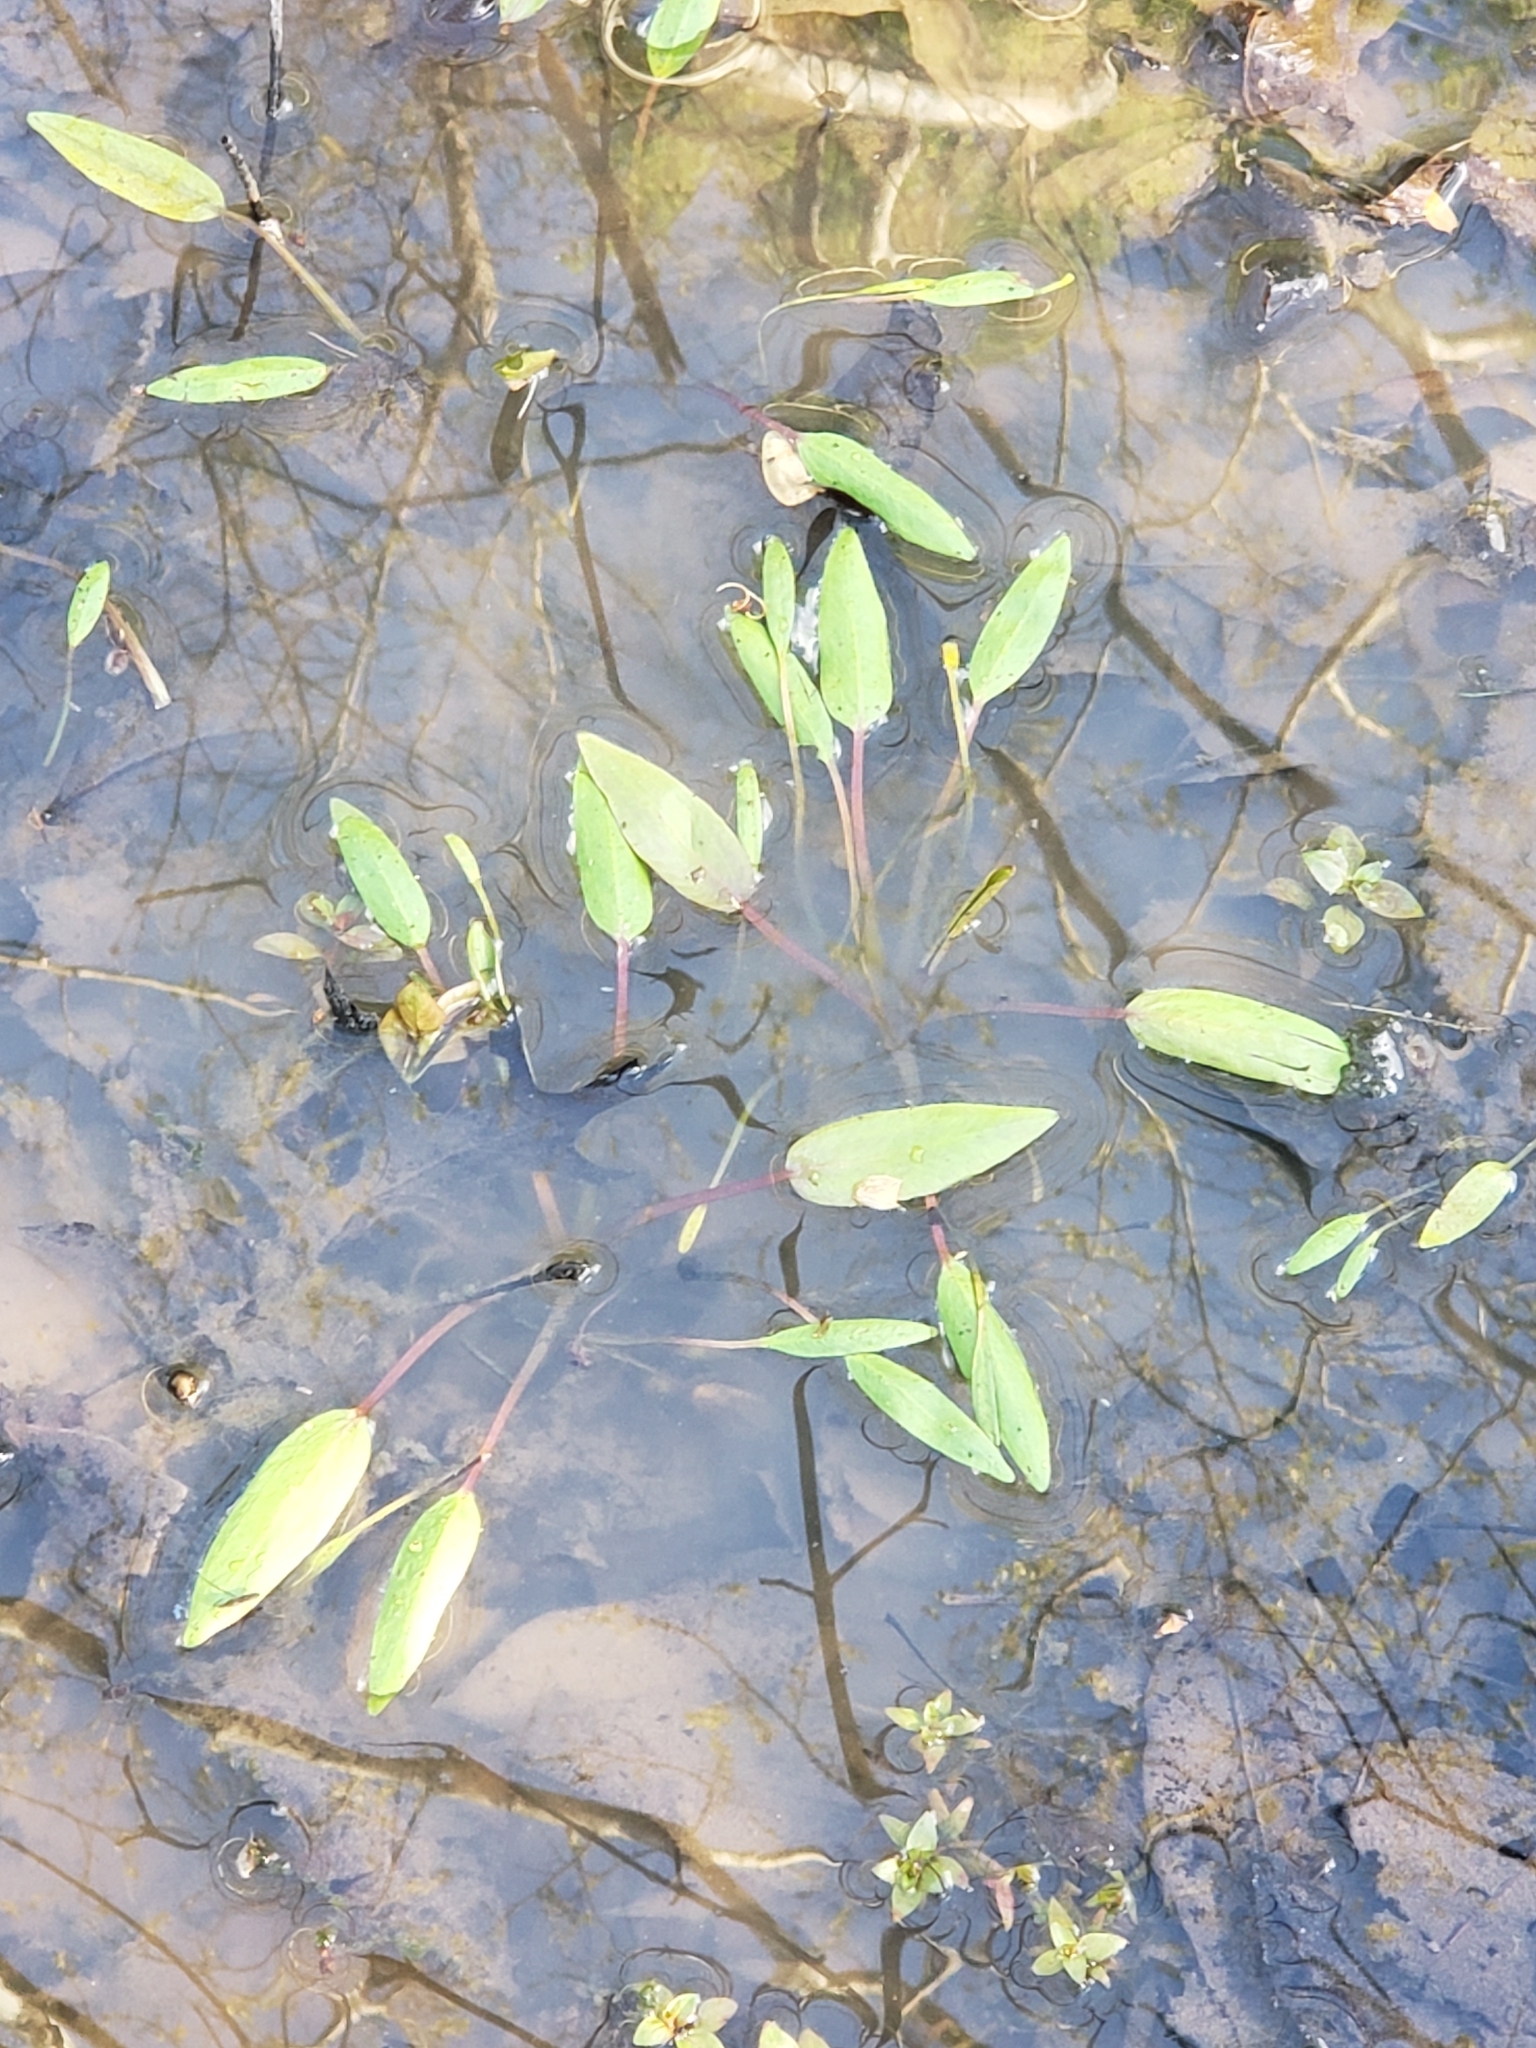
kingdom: Plantae
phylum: Tracheophyta
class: Liliopsida
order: Alismatales
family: Potamogetonaceae
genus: Potamogeton
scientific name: Potamogeton nodosus
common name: Loddon pondweed
